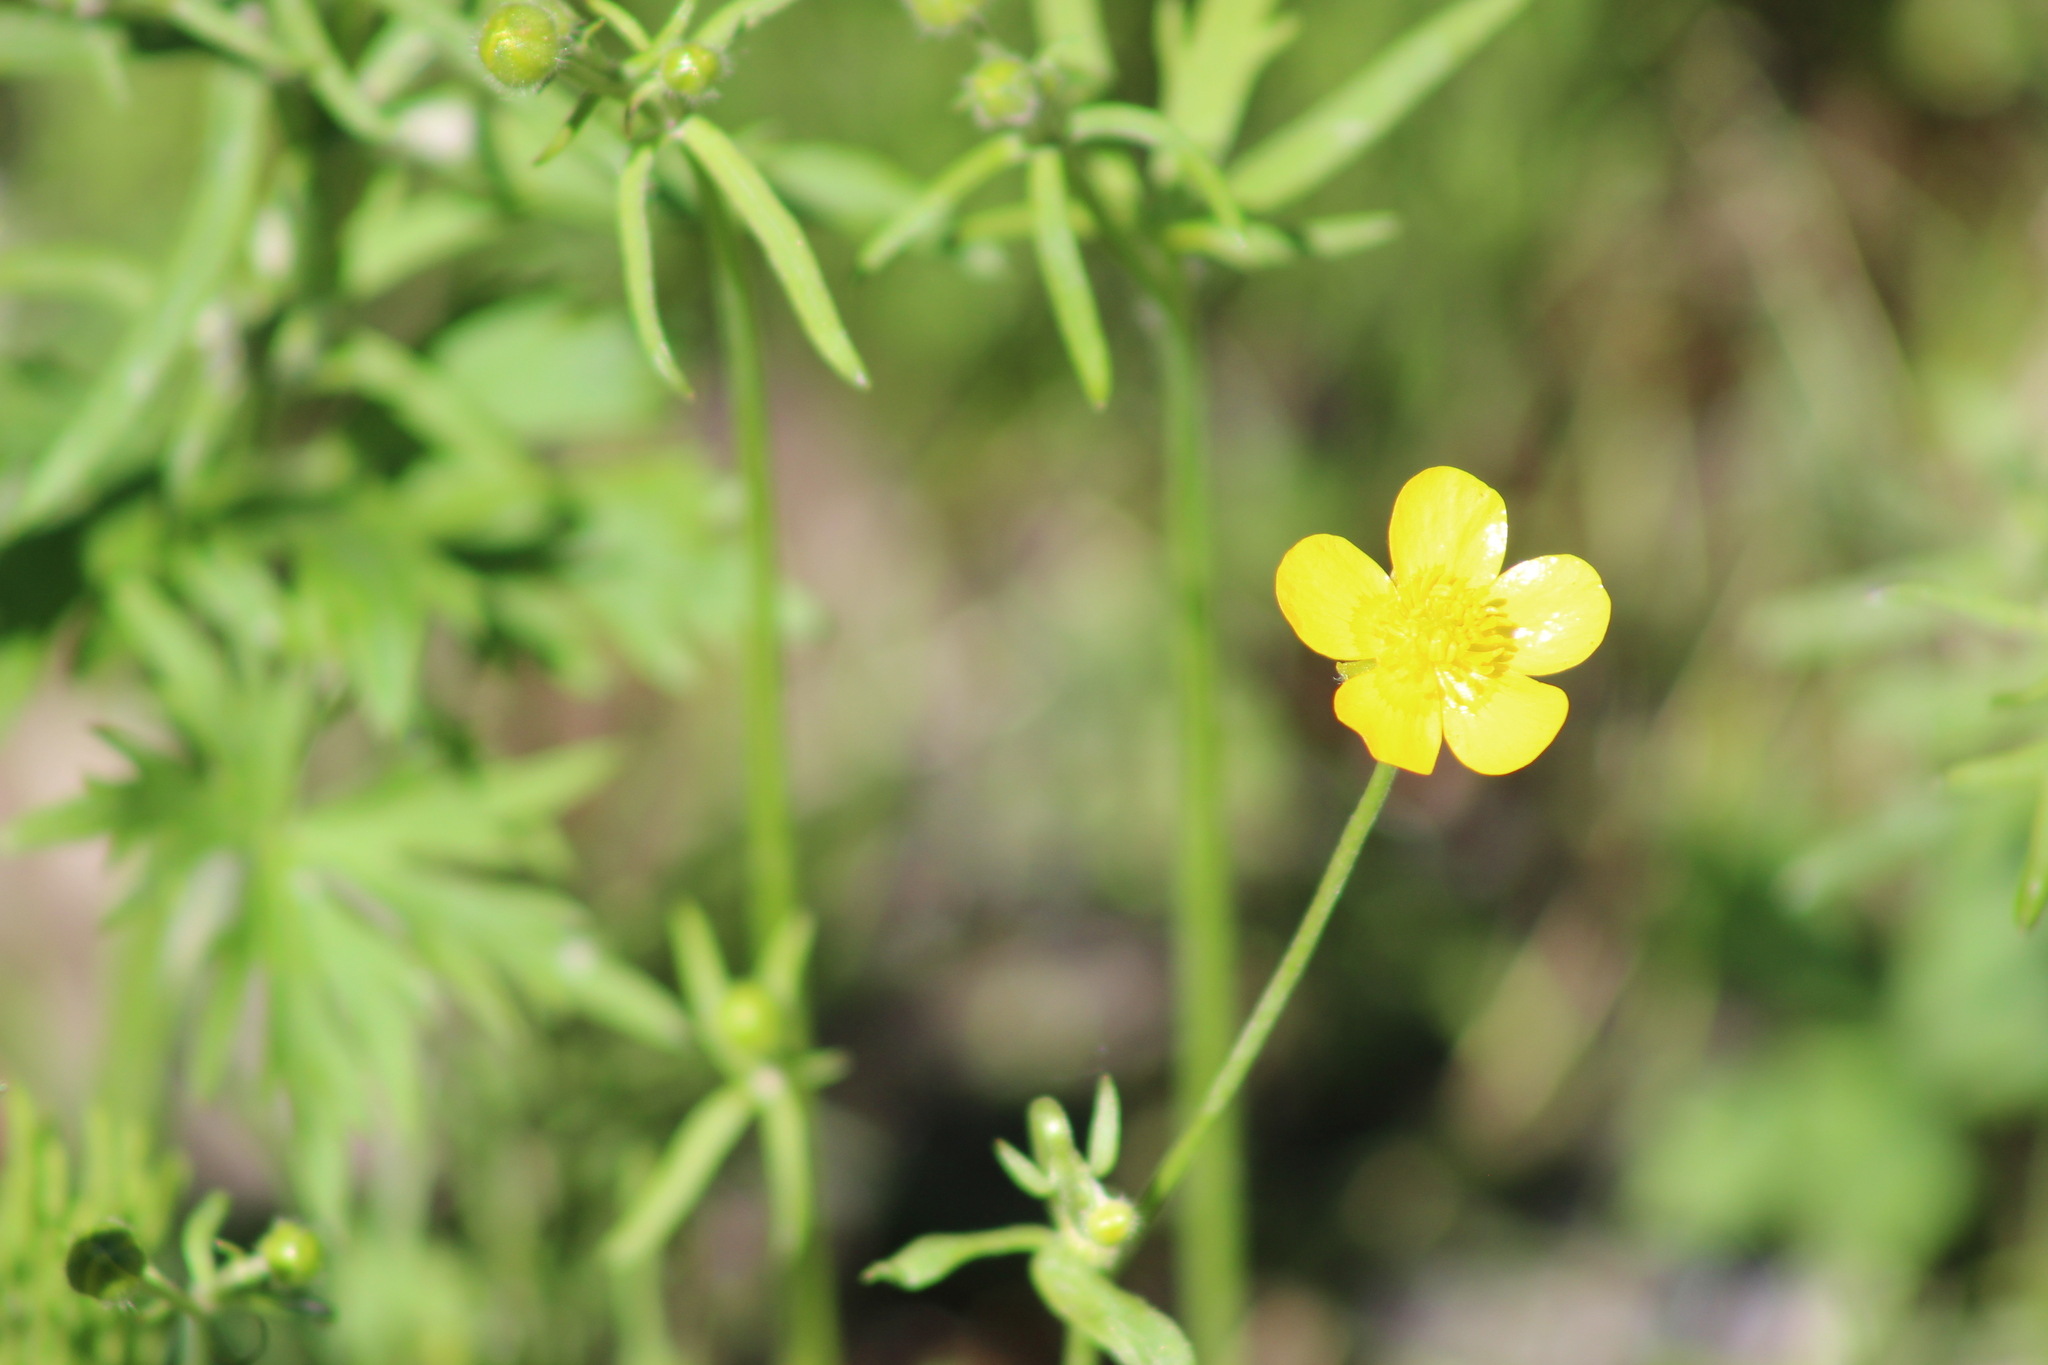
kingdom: Plantae
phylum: Tracheophyta
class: Magnoliopsida
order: Ranunculales
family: Ranunculaceae
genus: Ranunculus
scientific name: Ranunculus propinquus
